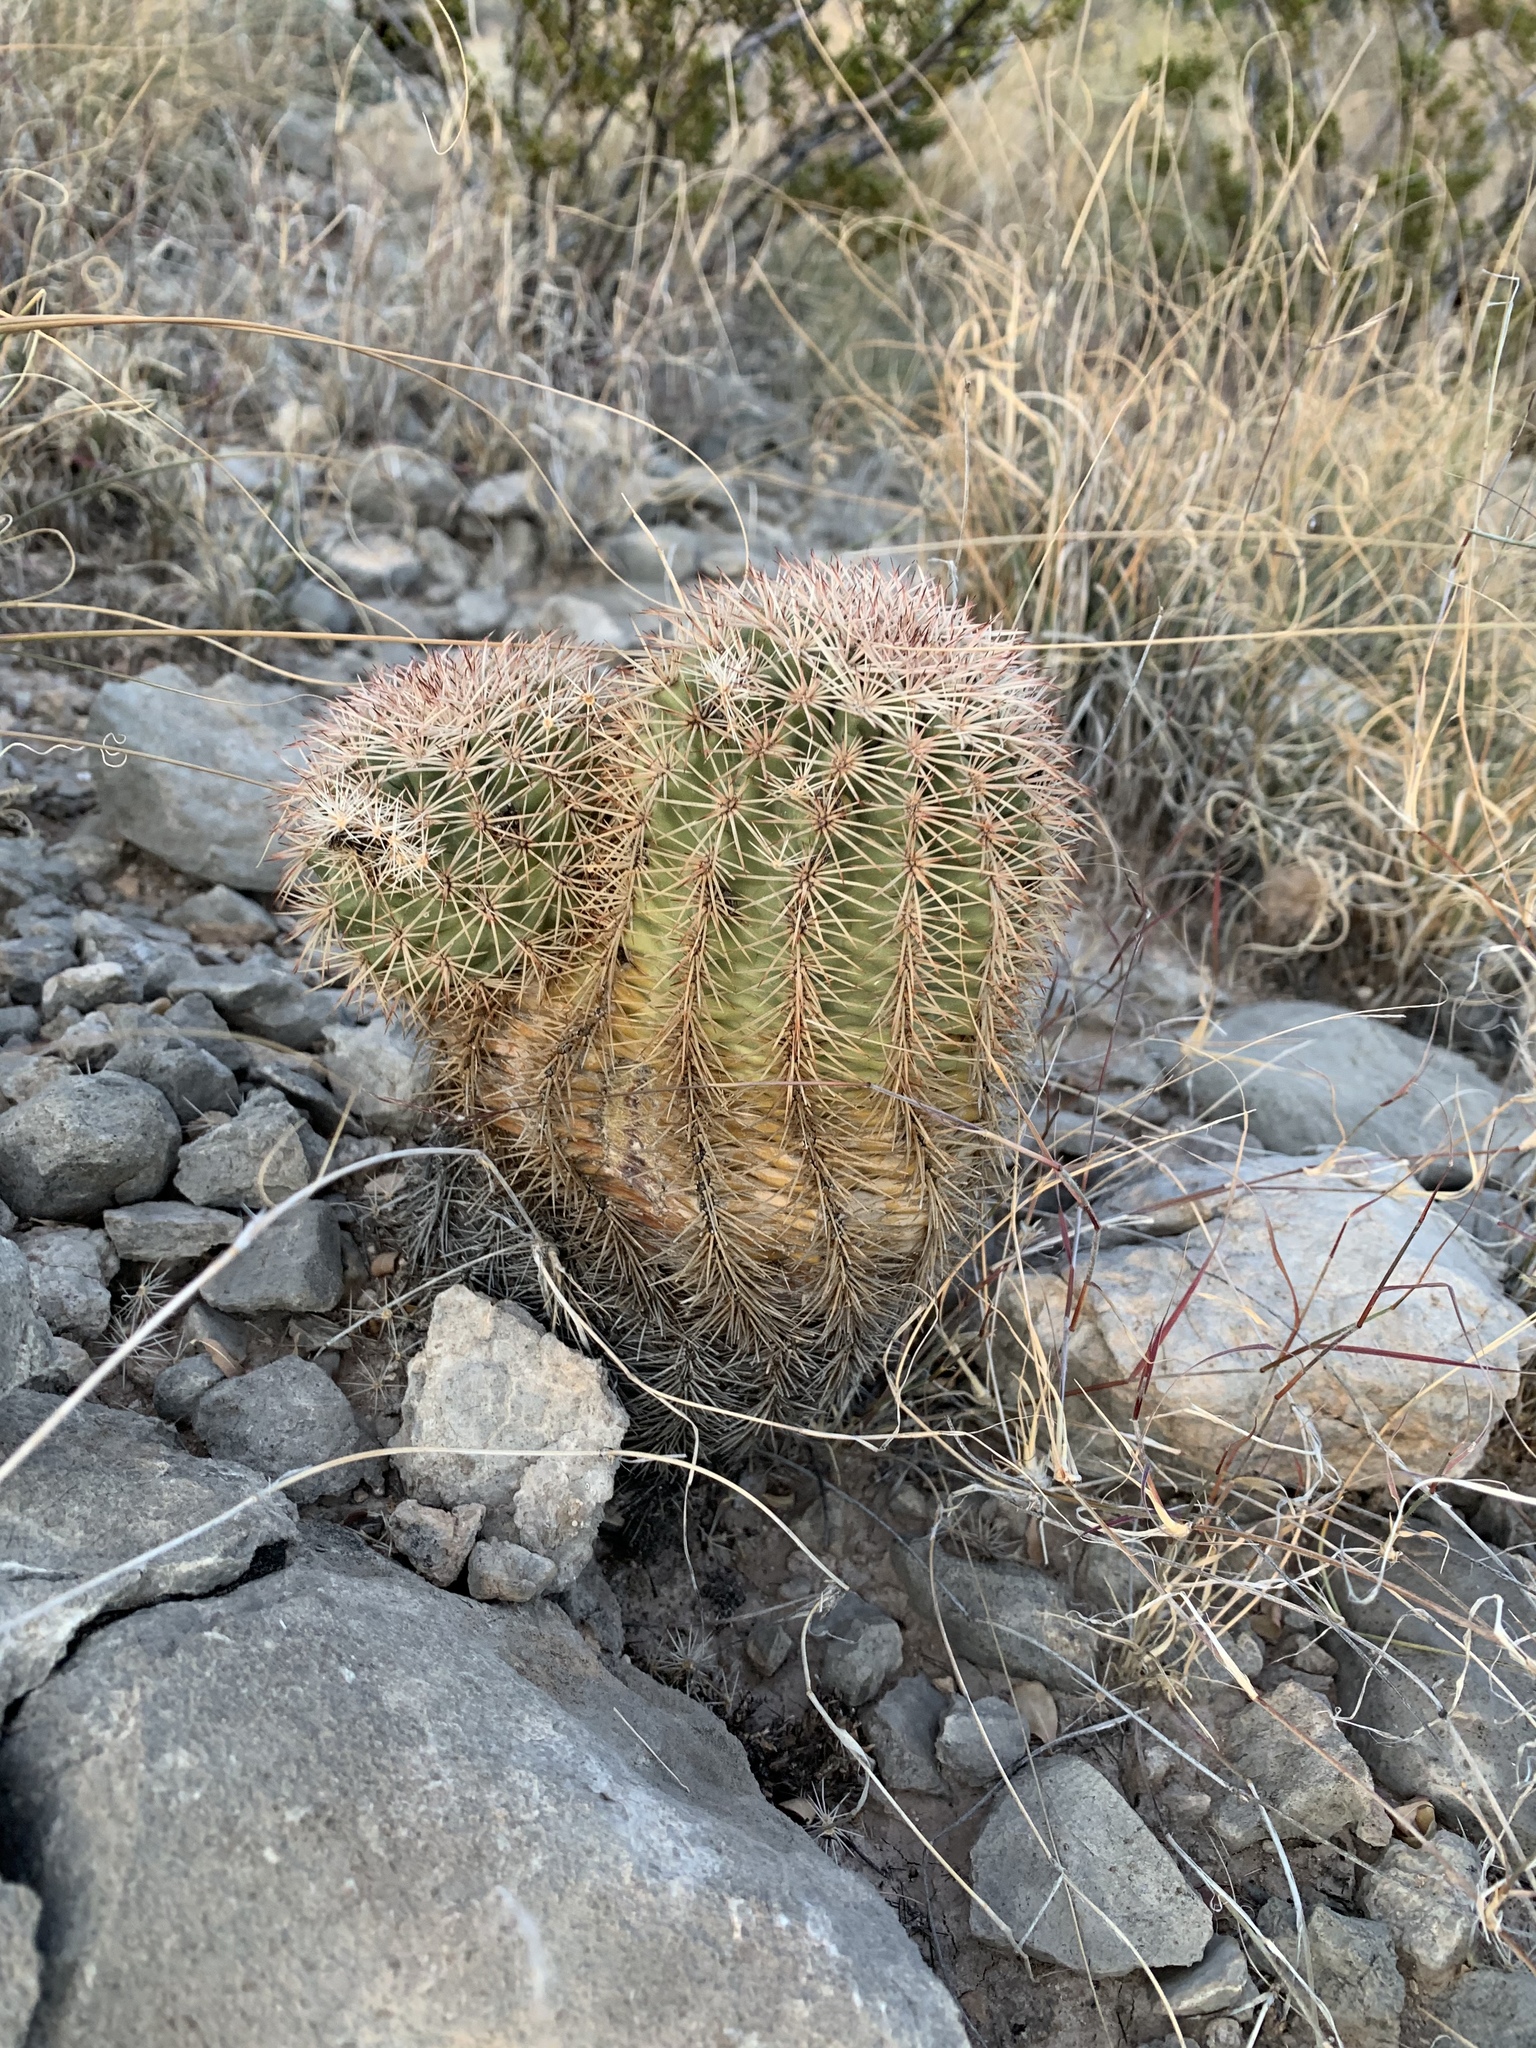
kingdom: Plantae
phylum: Tracheophyta
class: Magnoliopsida
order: Caryophyllales
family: Cactaceae
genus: Echinocereus
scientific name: Echinocereus dasyacanthus
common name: Spiny hedgehog cactus
